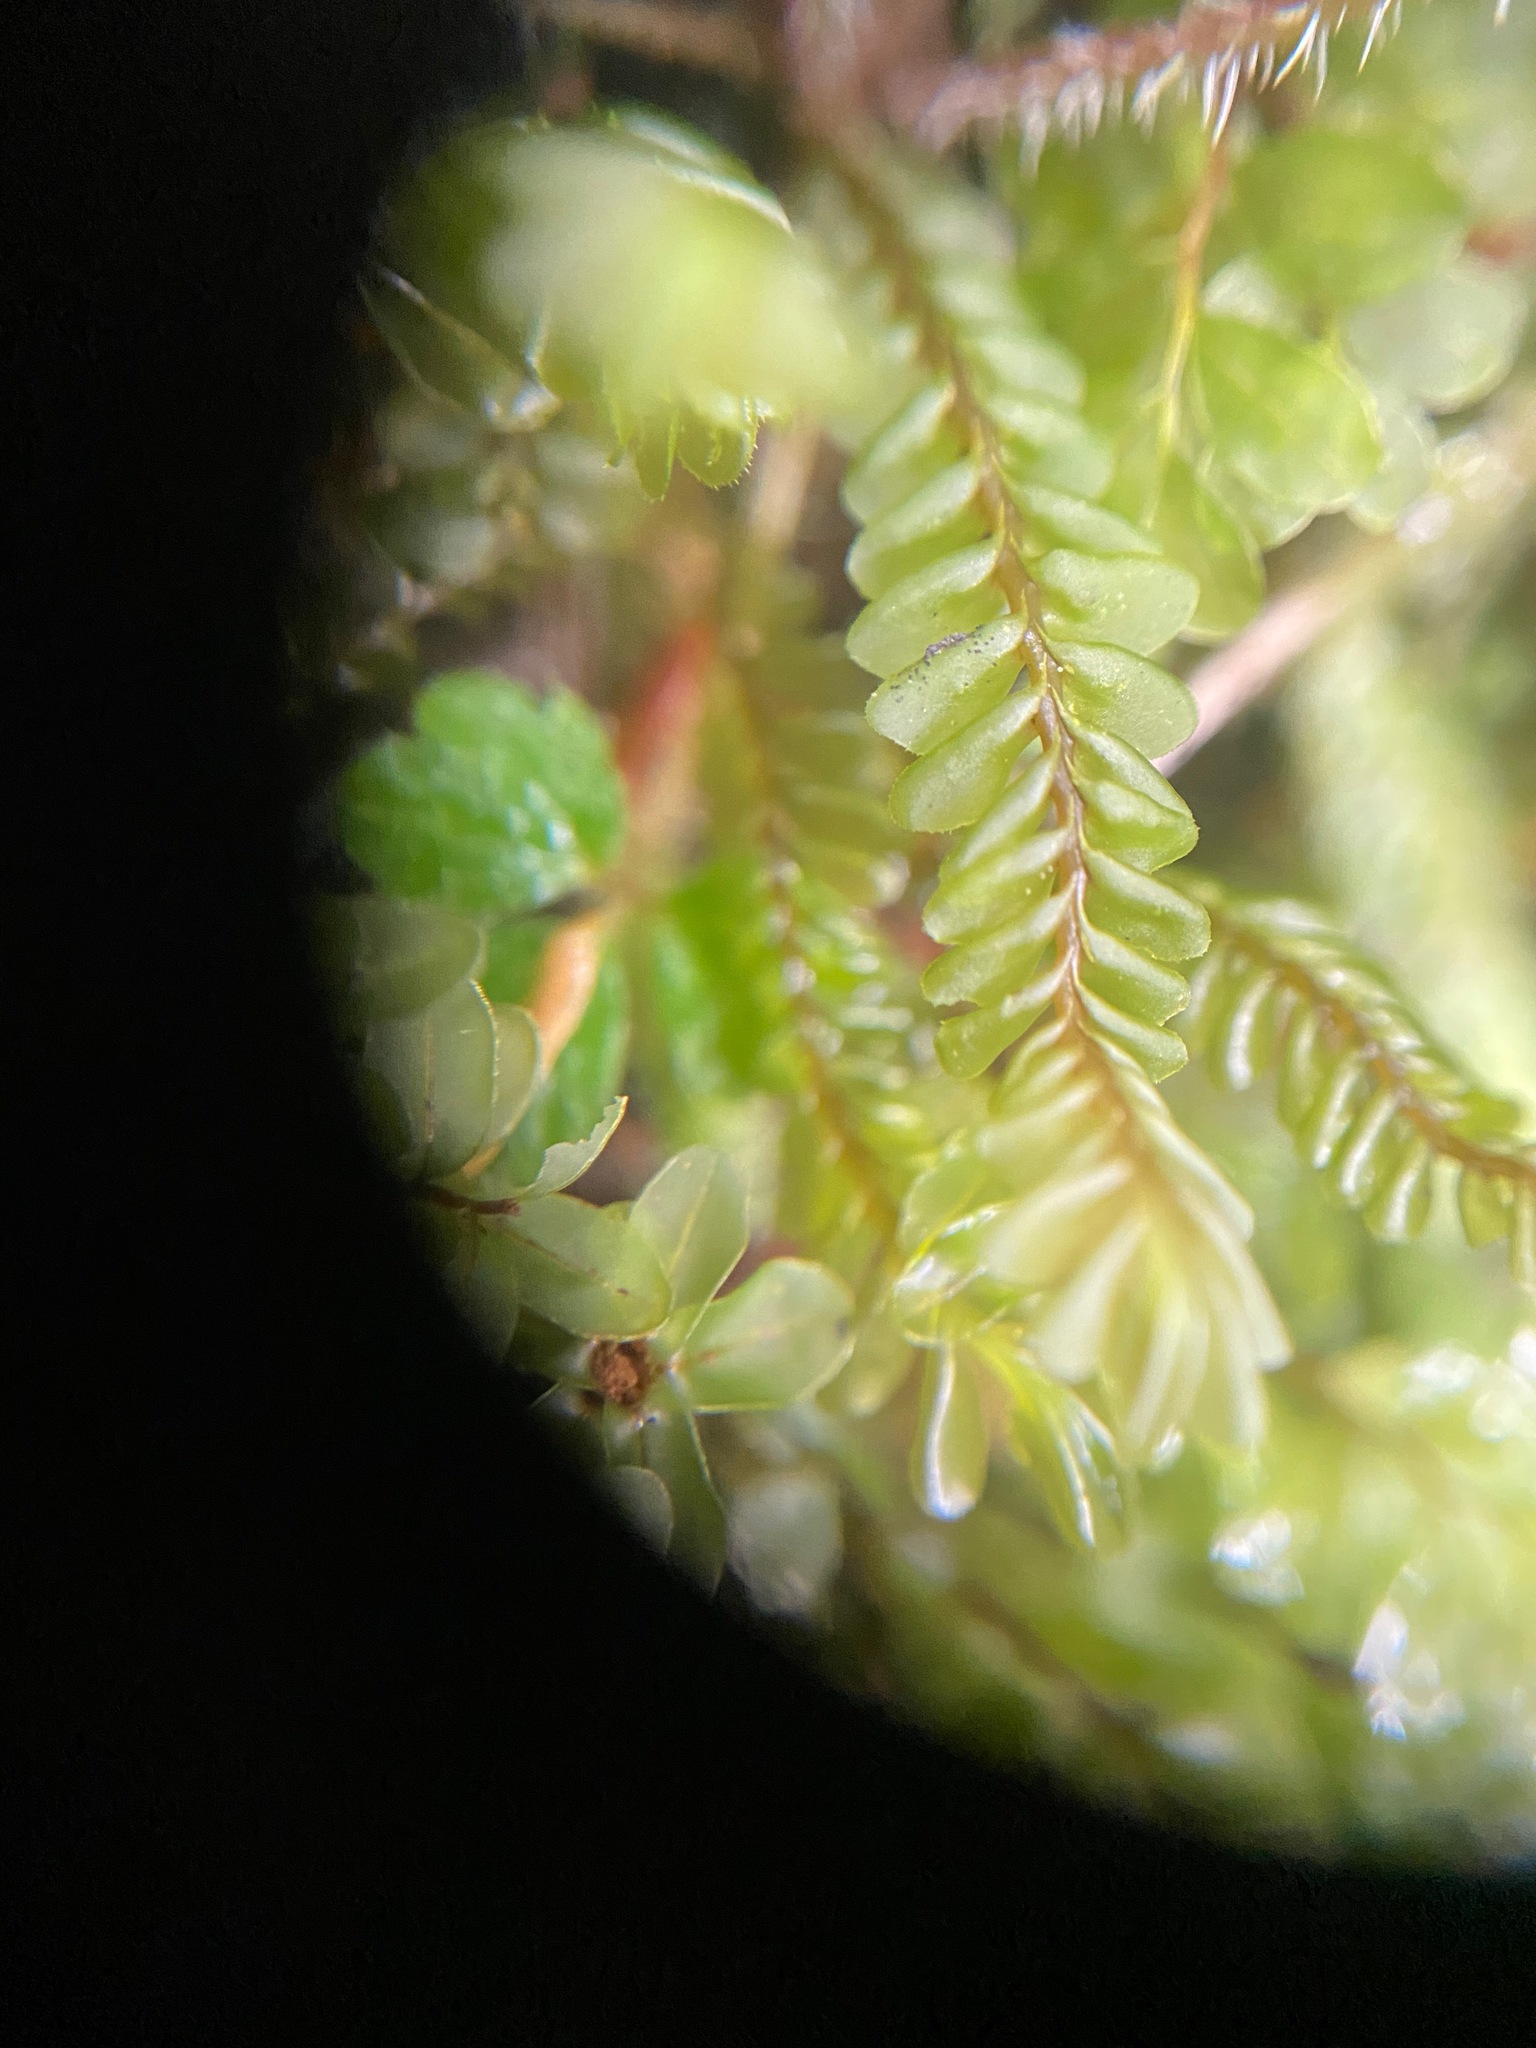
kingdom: Plantae
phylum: Marchantiophyta
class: Jungermanniopsida
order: Jungermanniales
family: Plagiochilaceae
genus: Plagiochila
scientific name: Plagiochila porelloides
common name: Lesser featherwort
